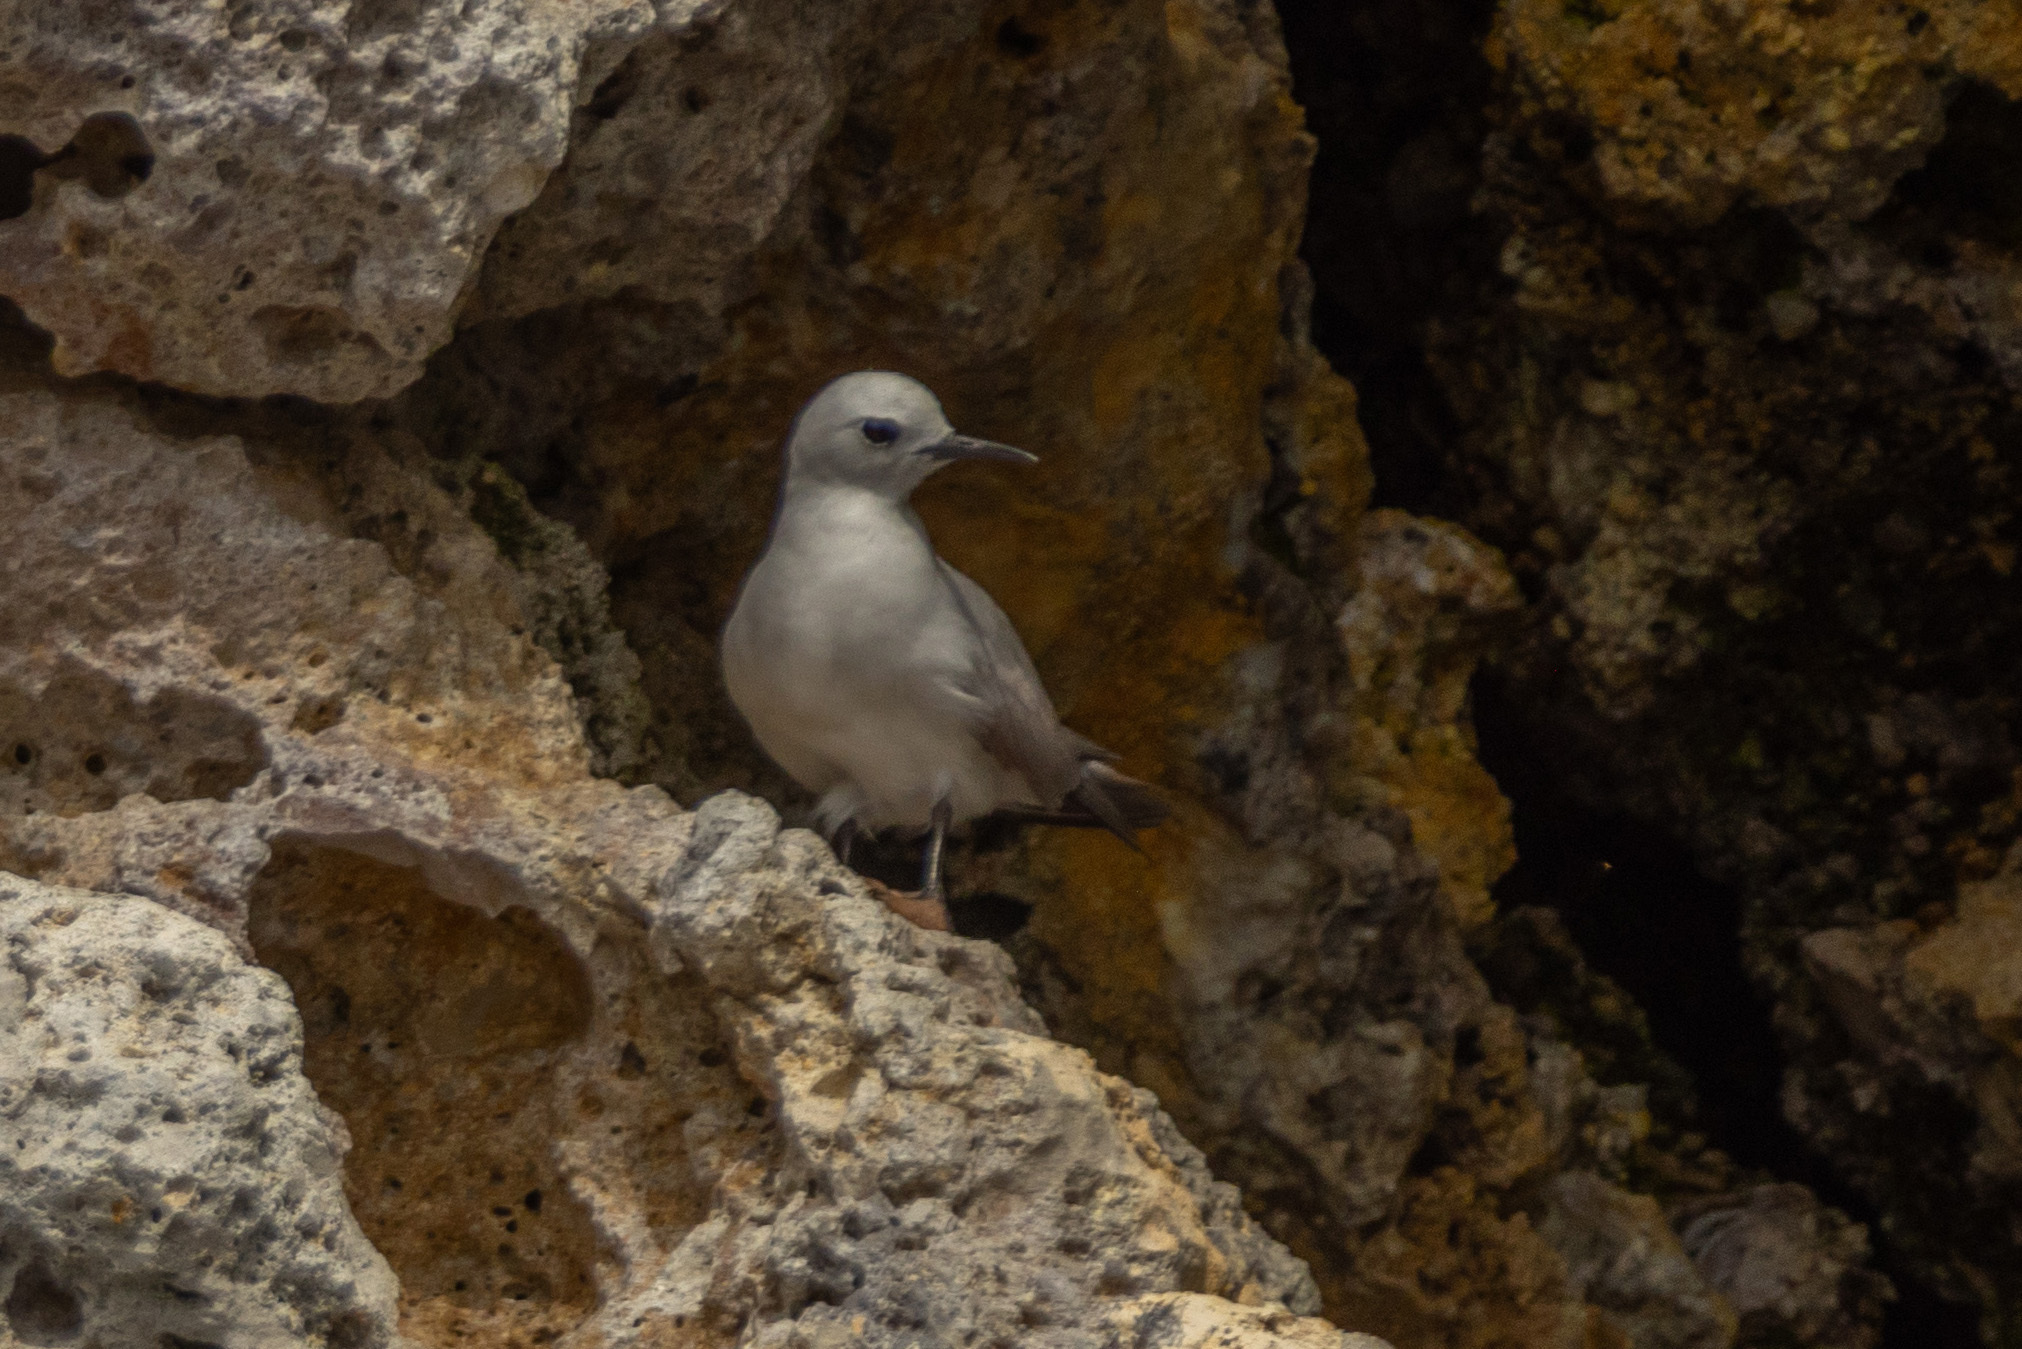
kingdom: Animalia
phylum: Chordata
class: Aves
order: Charadriiformes
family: Laridae
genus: Anous
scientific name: Anous albivitta
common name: Gray noddy
